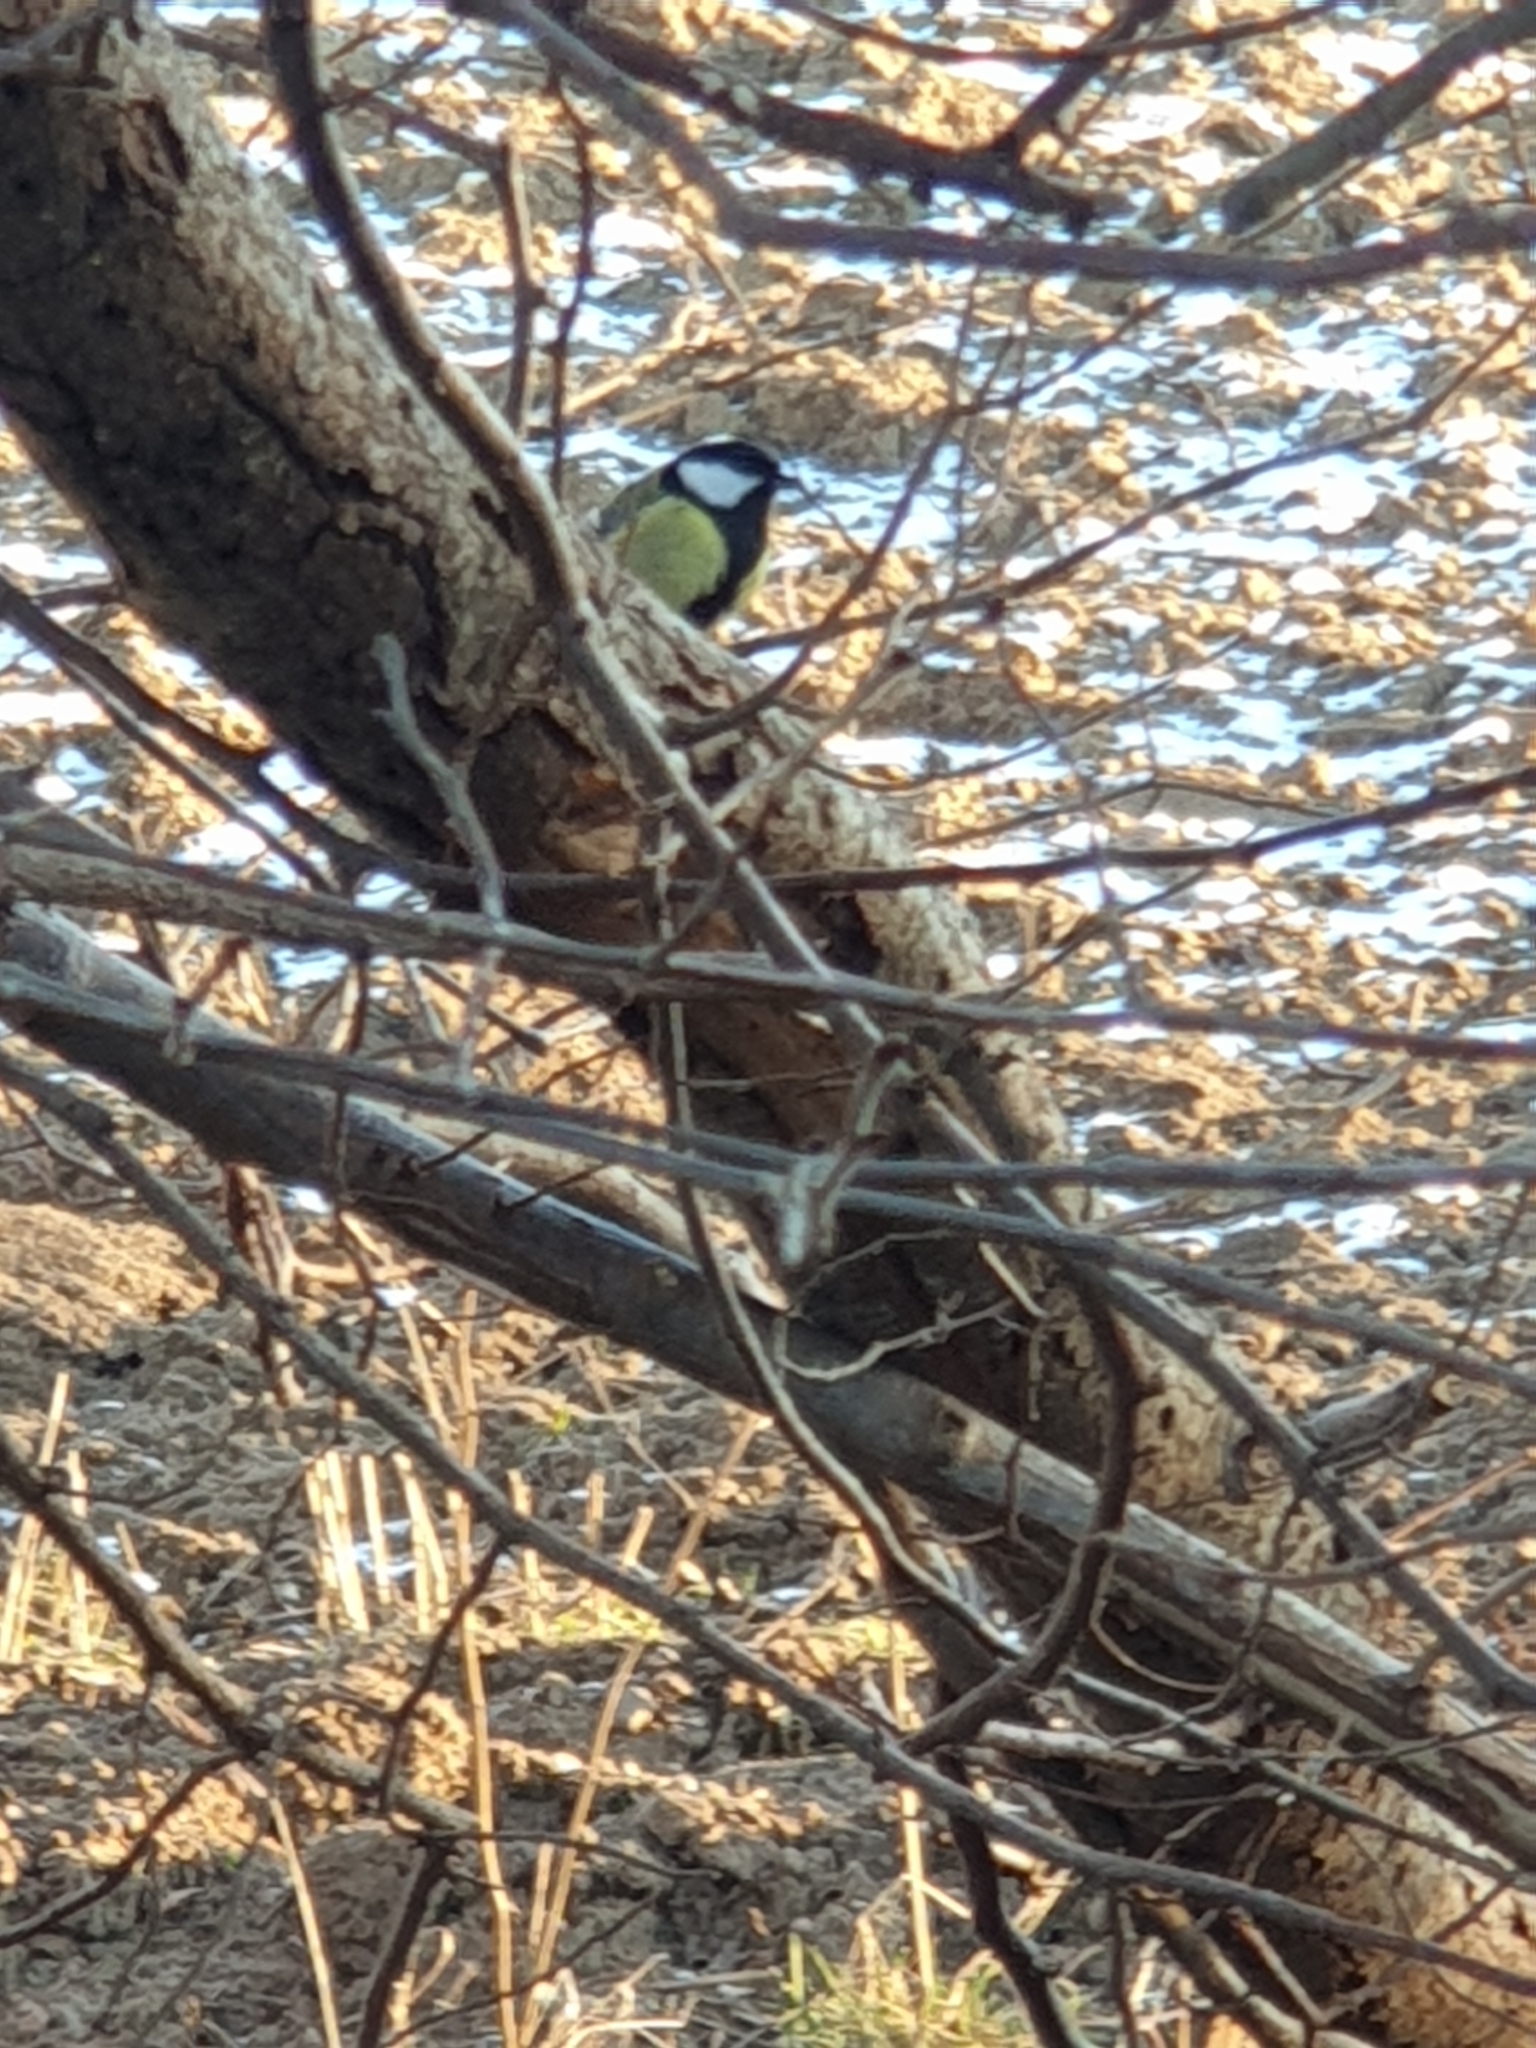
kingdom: Animalia
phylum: Chordata
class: Aves
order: Passeriformes
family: Paridae
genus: Parus
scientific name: Parus major
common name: Great tit
